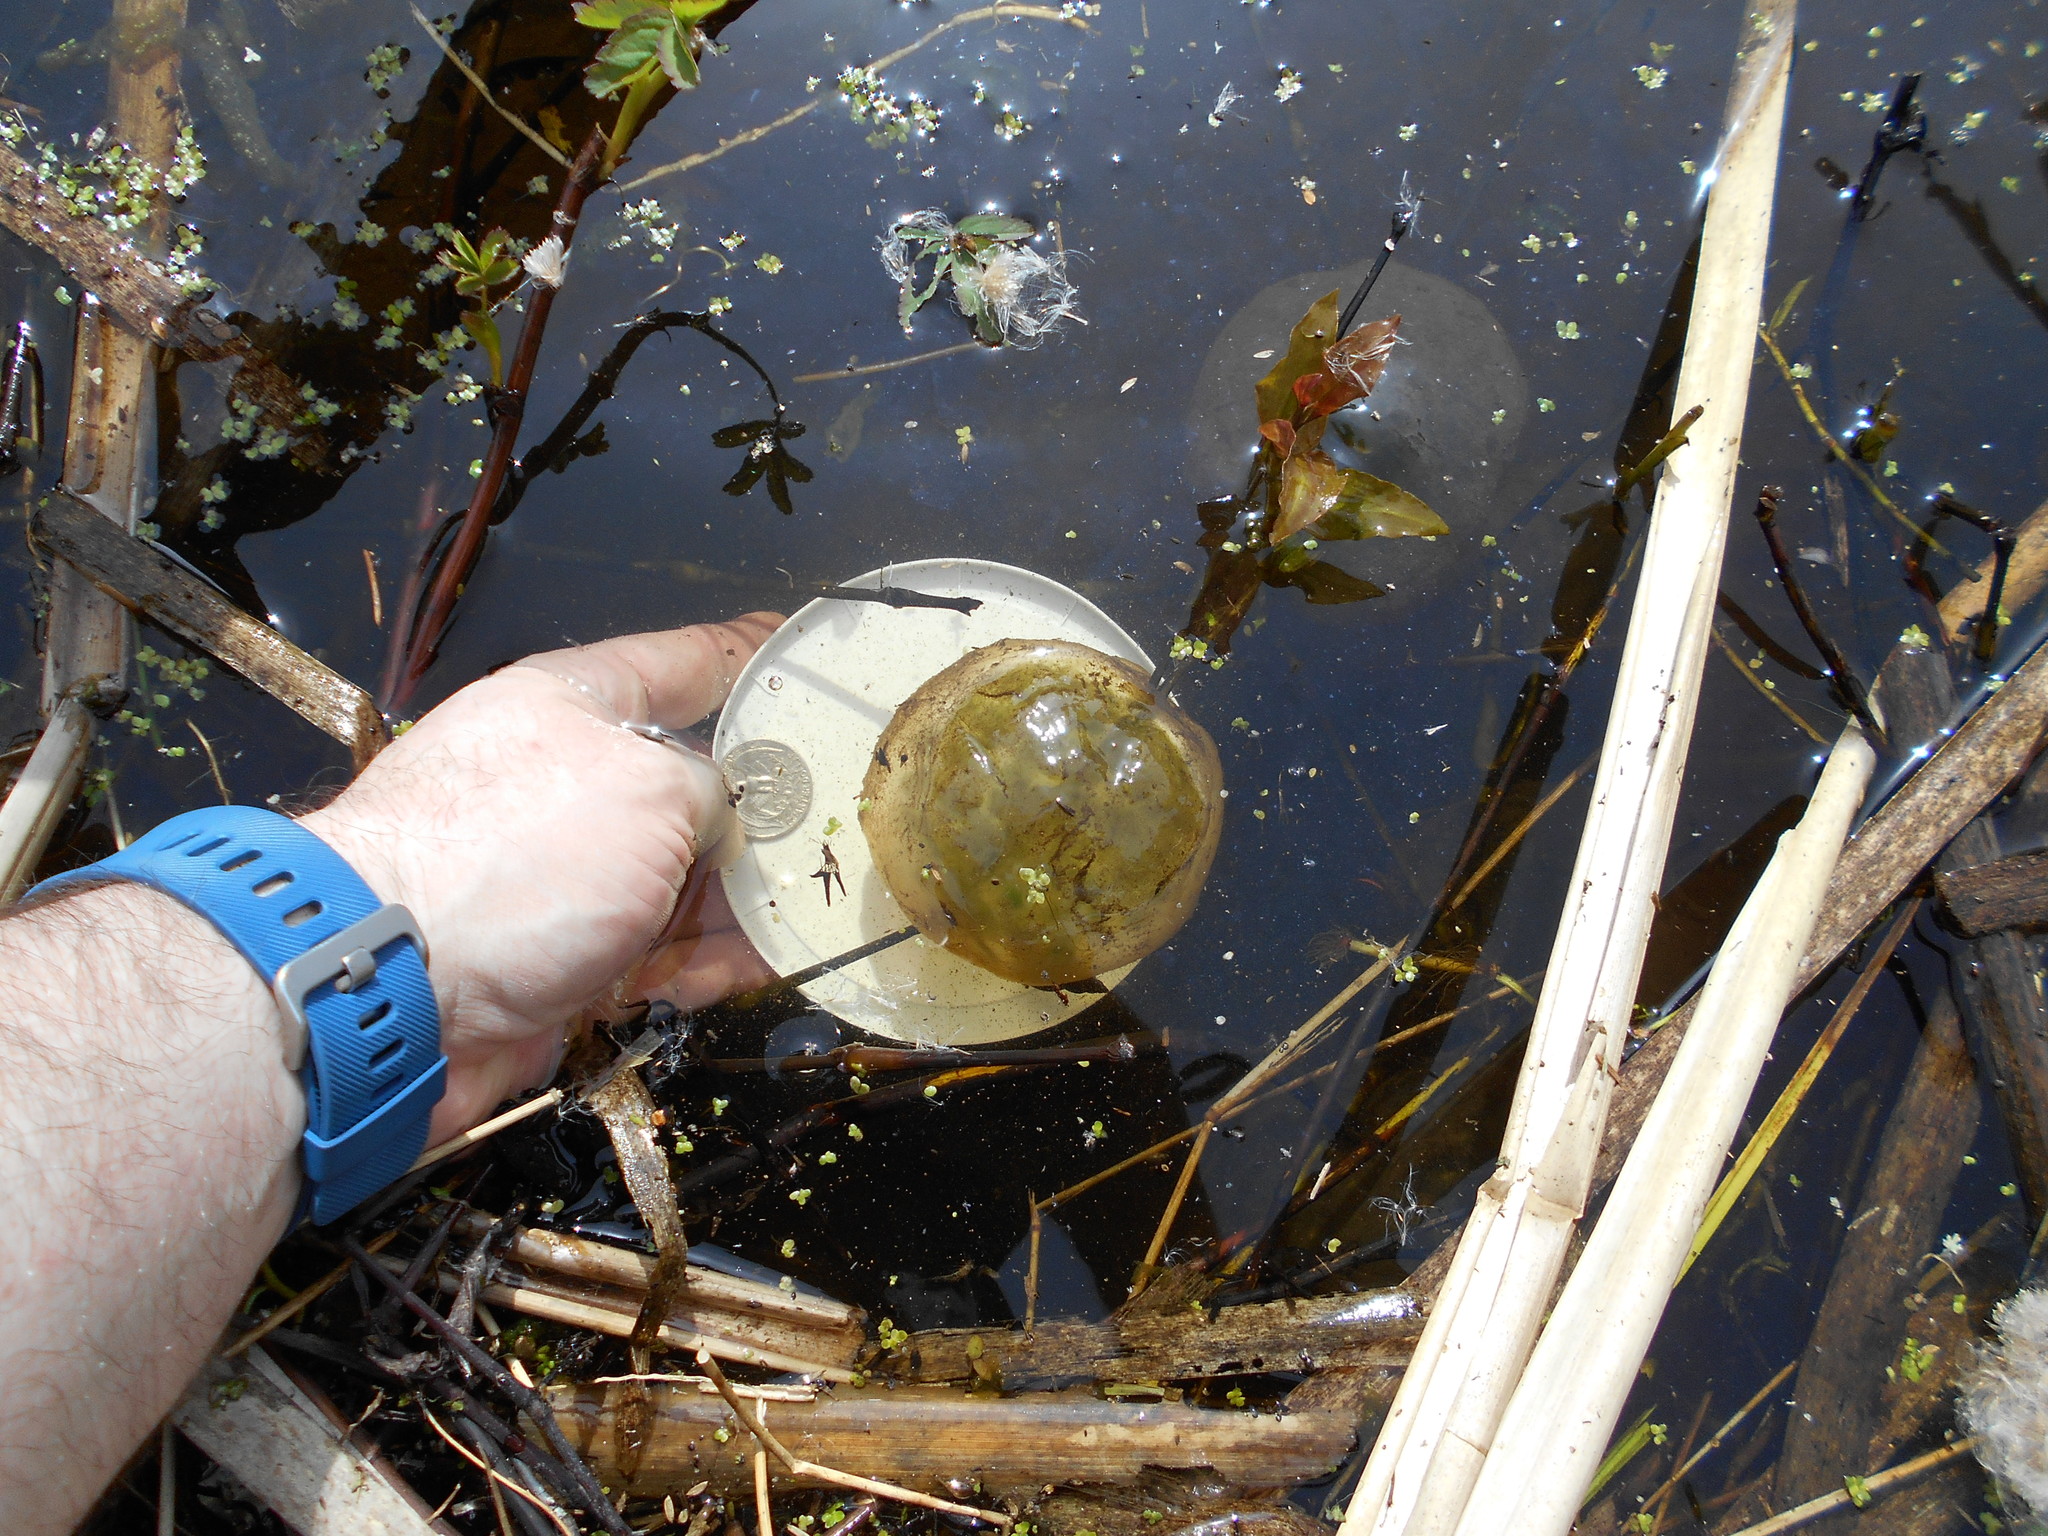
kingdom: Animalia
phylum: Chordata
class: Amphibia
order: Caudata
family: Ambystomatidae
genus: Ambystoma
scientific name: Ambystoma gracile
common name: Northwestern salamander
